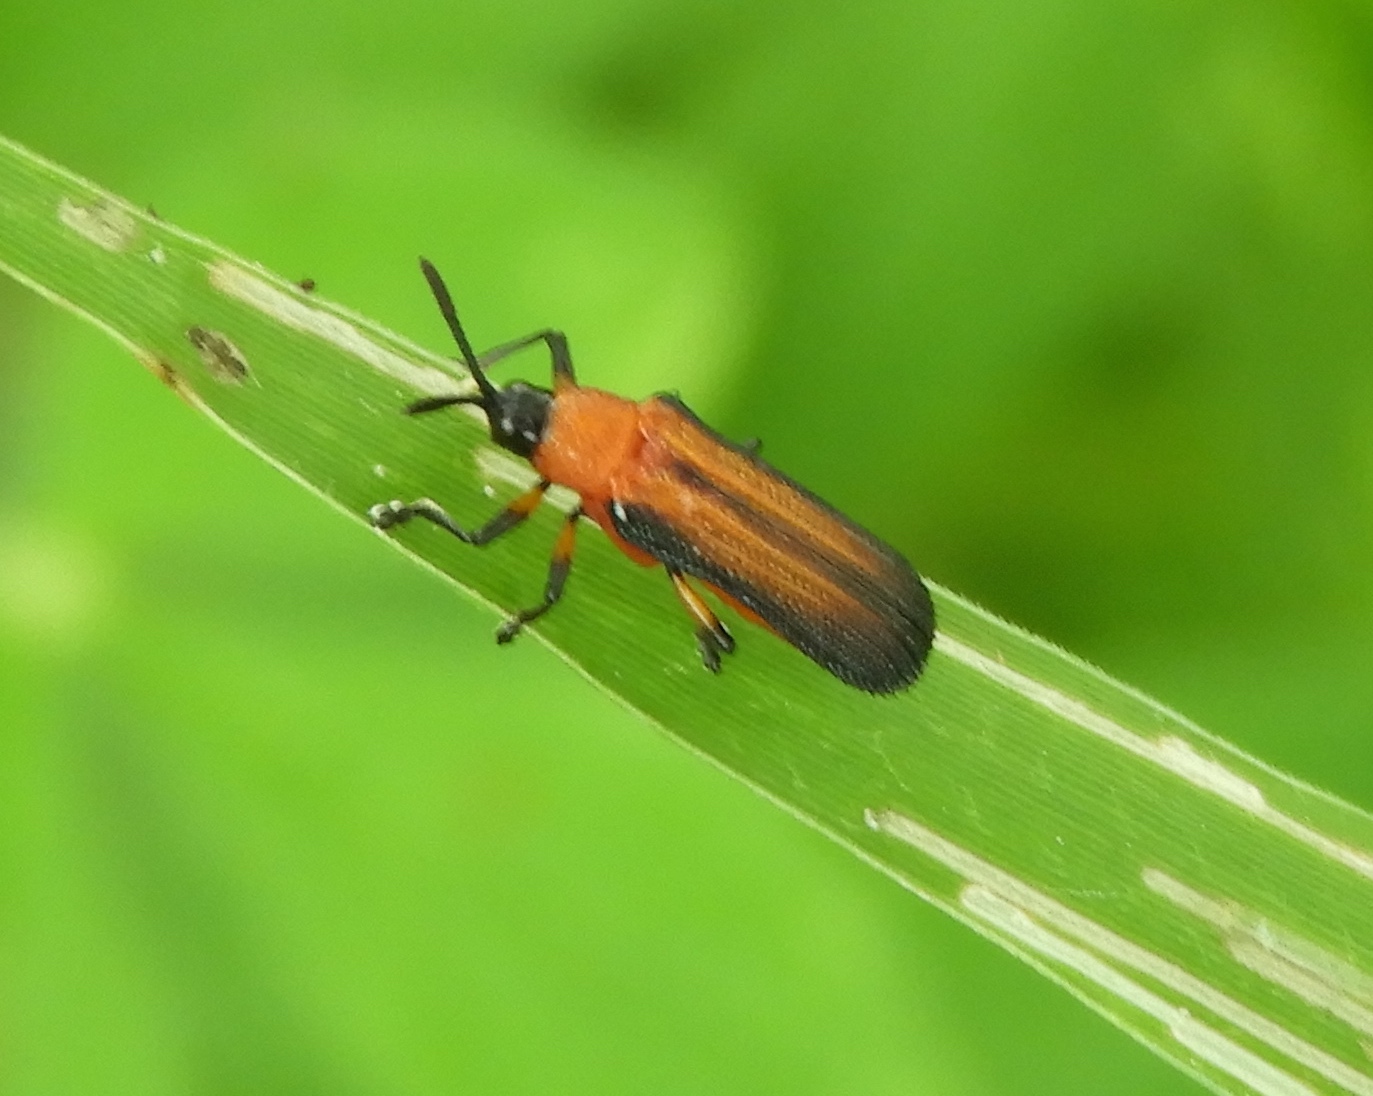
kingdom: Animalia
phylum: Arthropoda
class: Insecta
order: Coleoptera
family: Chrysomelidae
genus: Chalepus
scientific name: Chalepus bellulus
